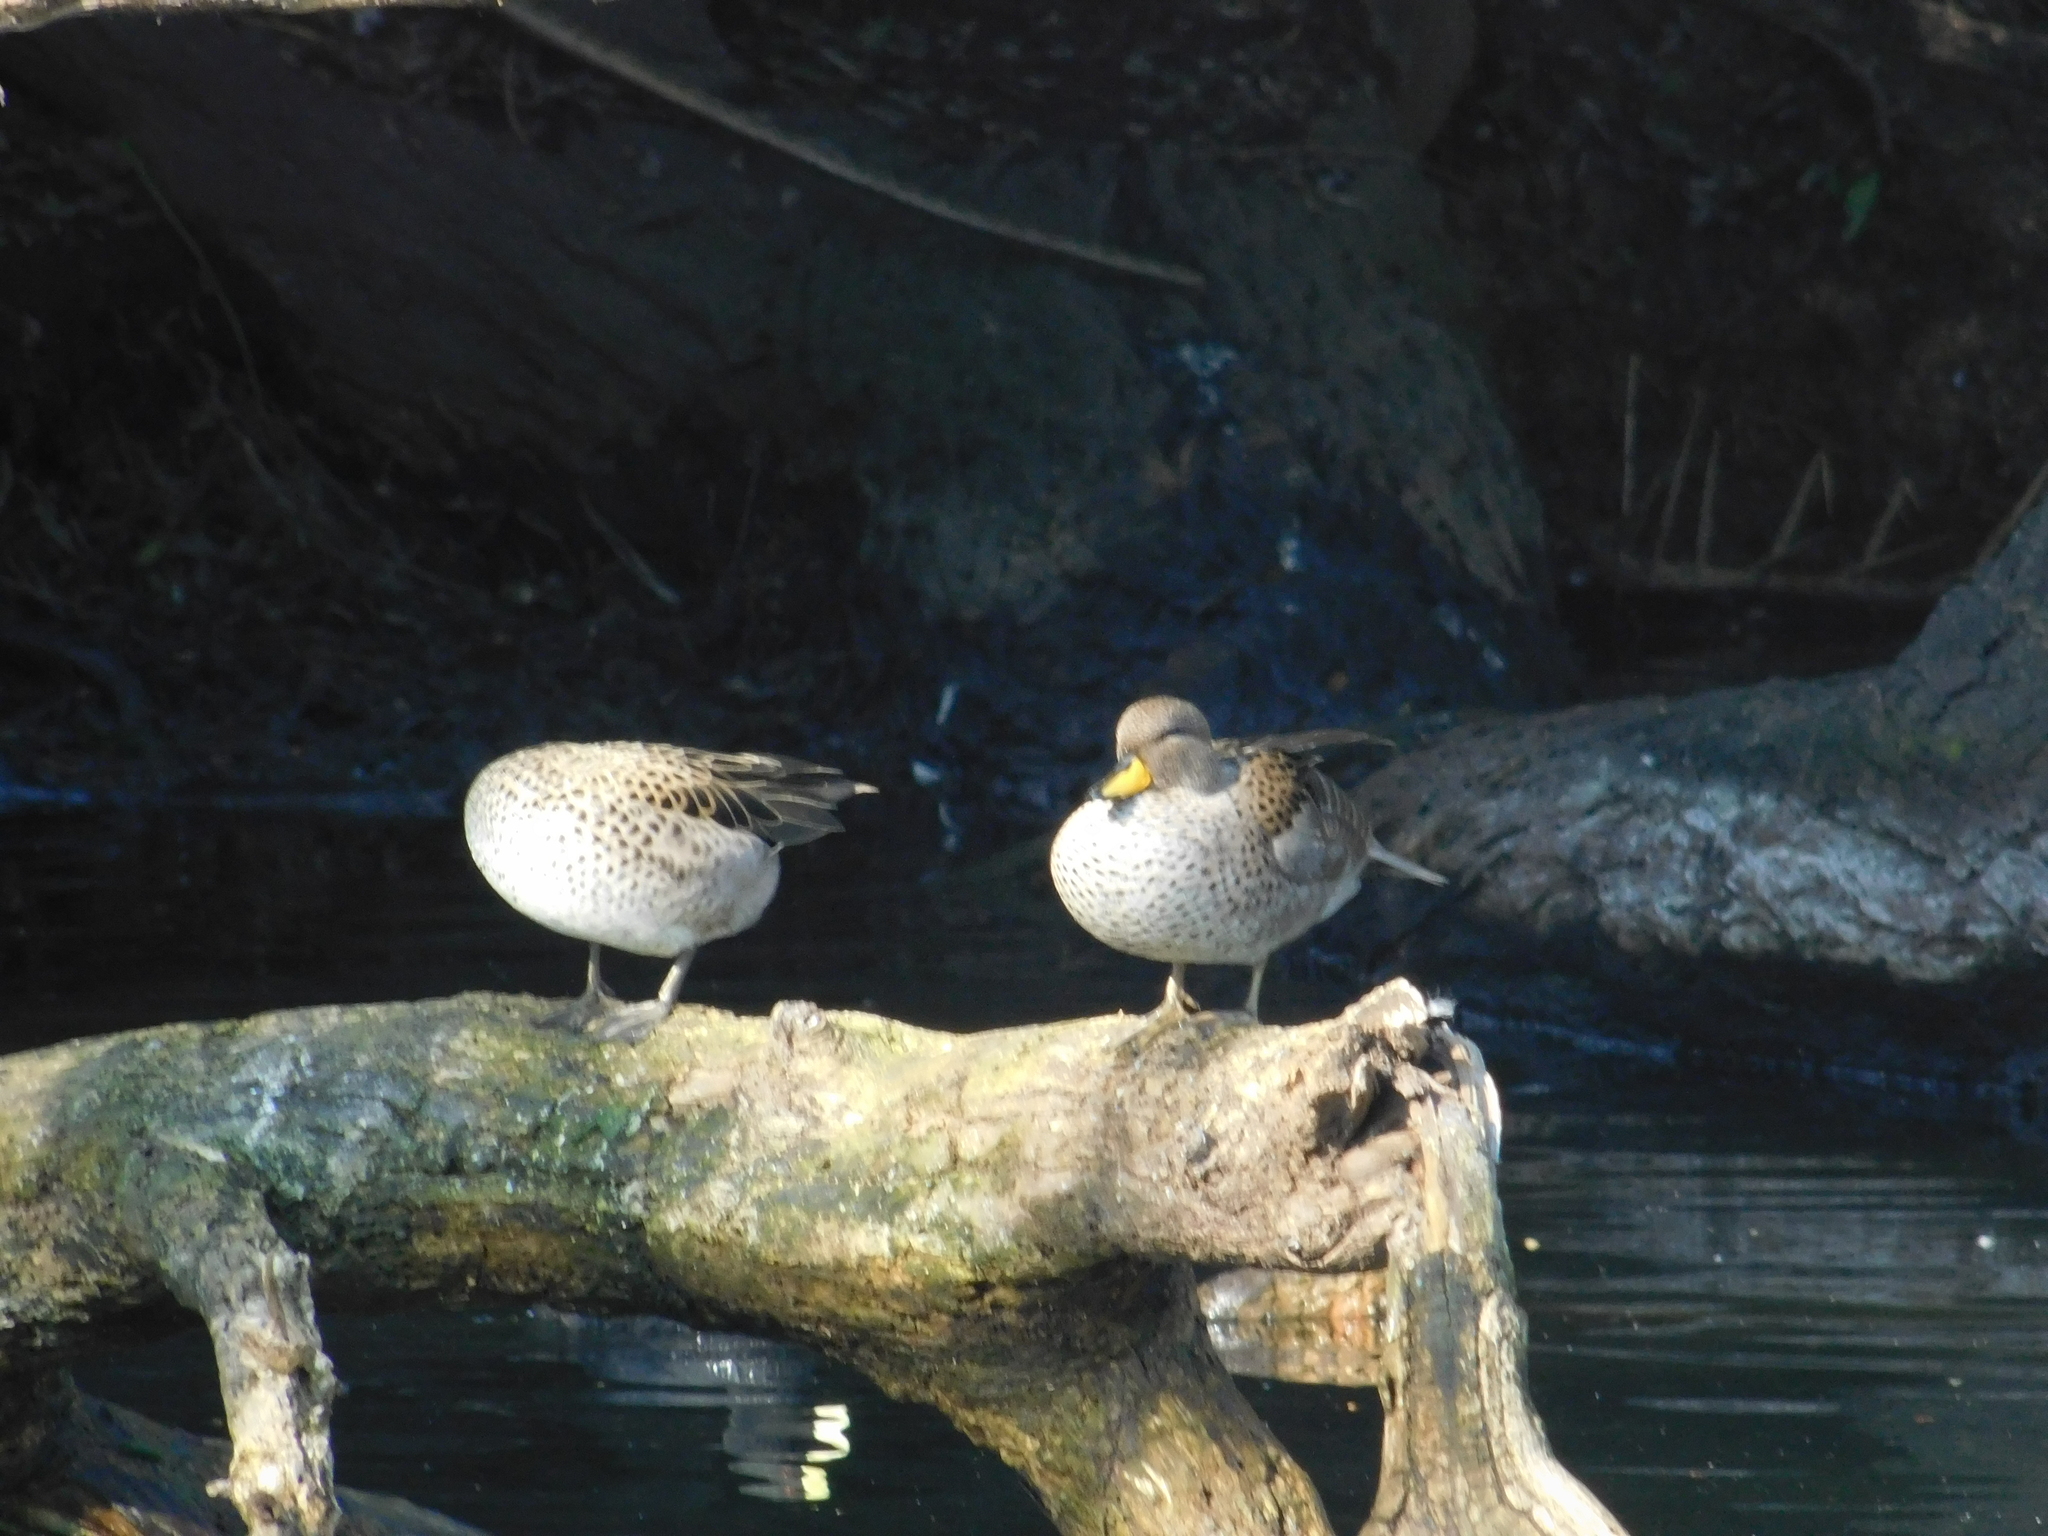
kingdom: Animalia
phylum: Chordata
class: Aves
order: Anseriformes
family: Anatidae
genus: Anas
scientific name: Anas flavirostris
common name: Yellow-billed teal
